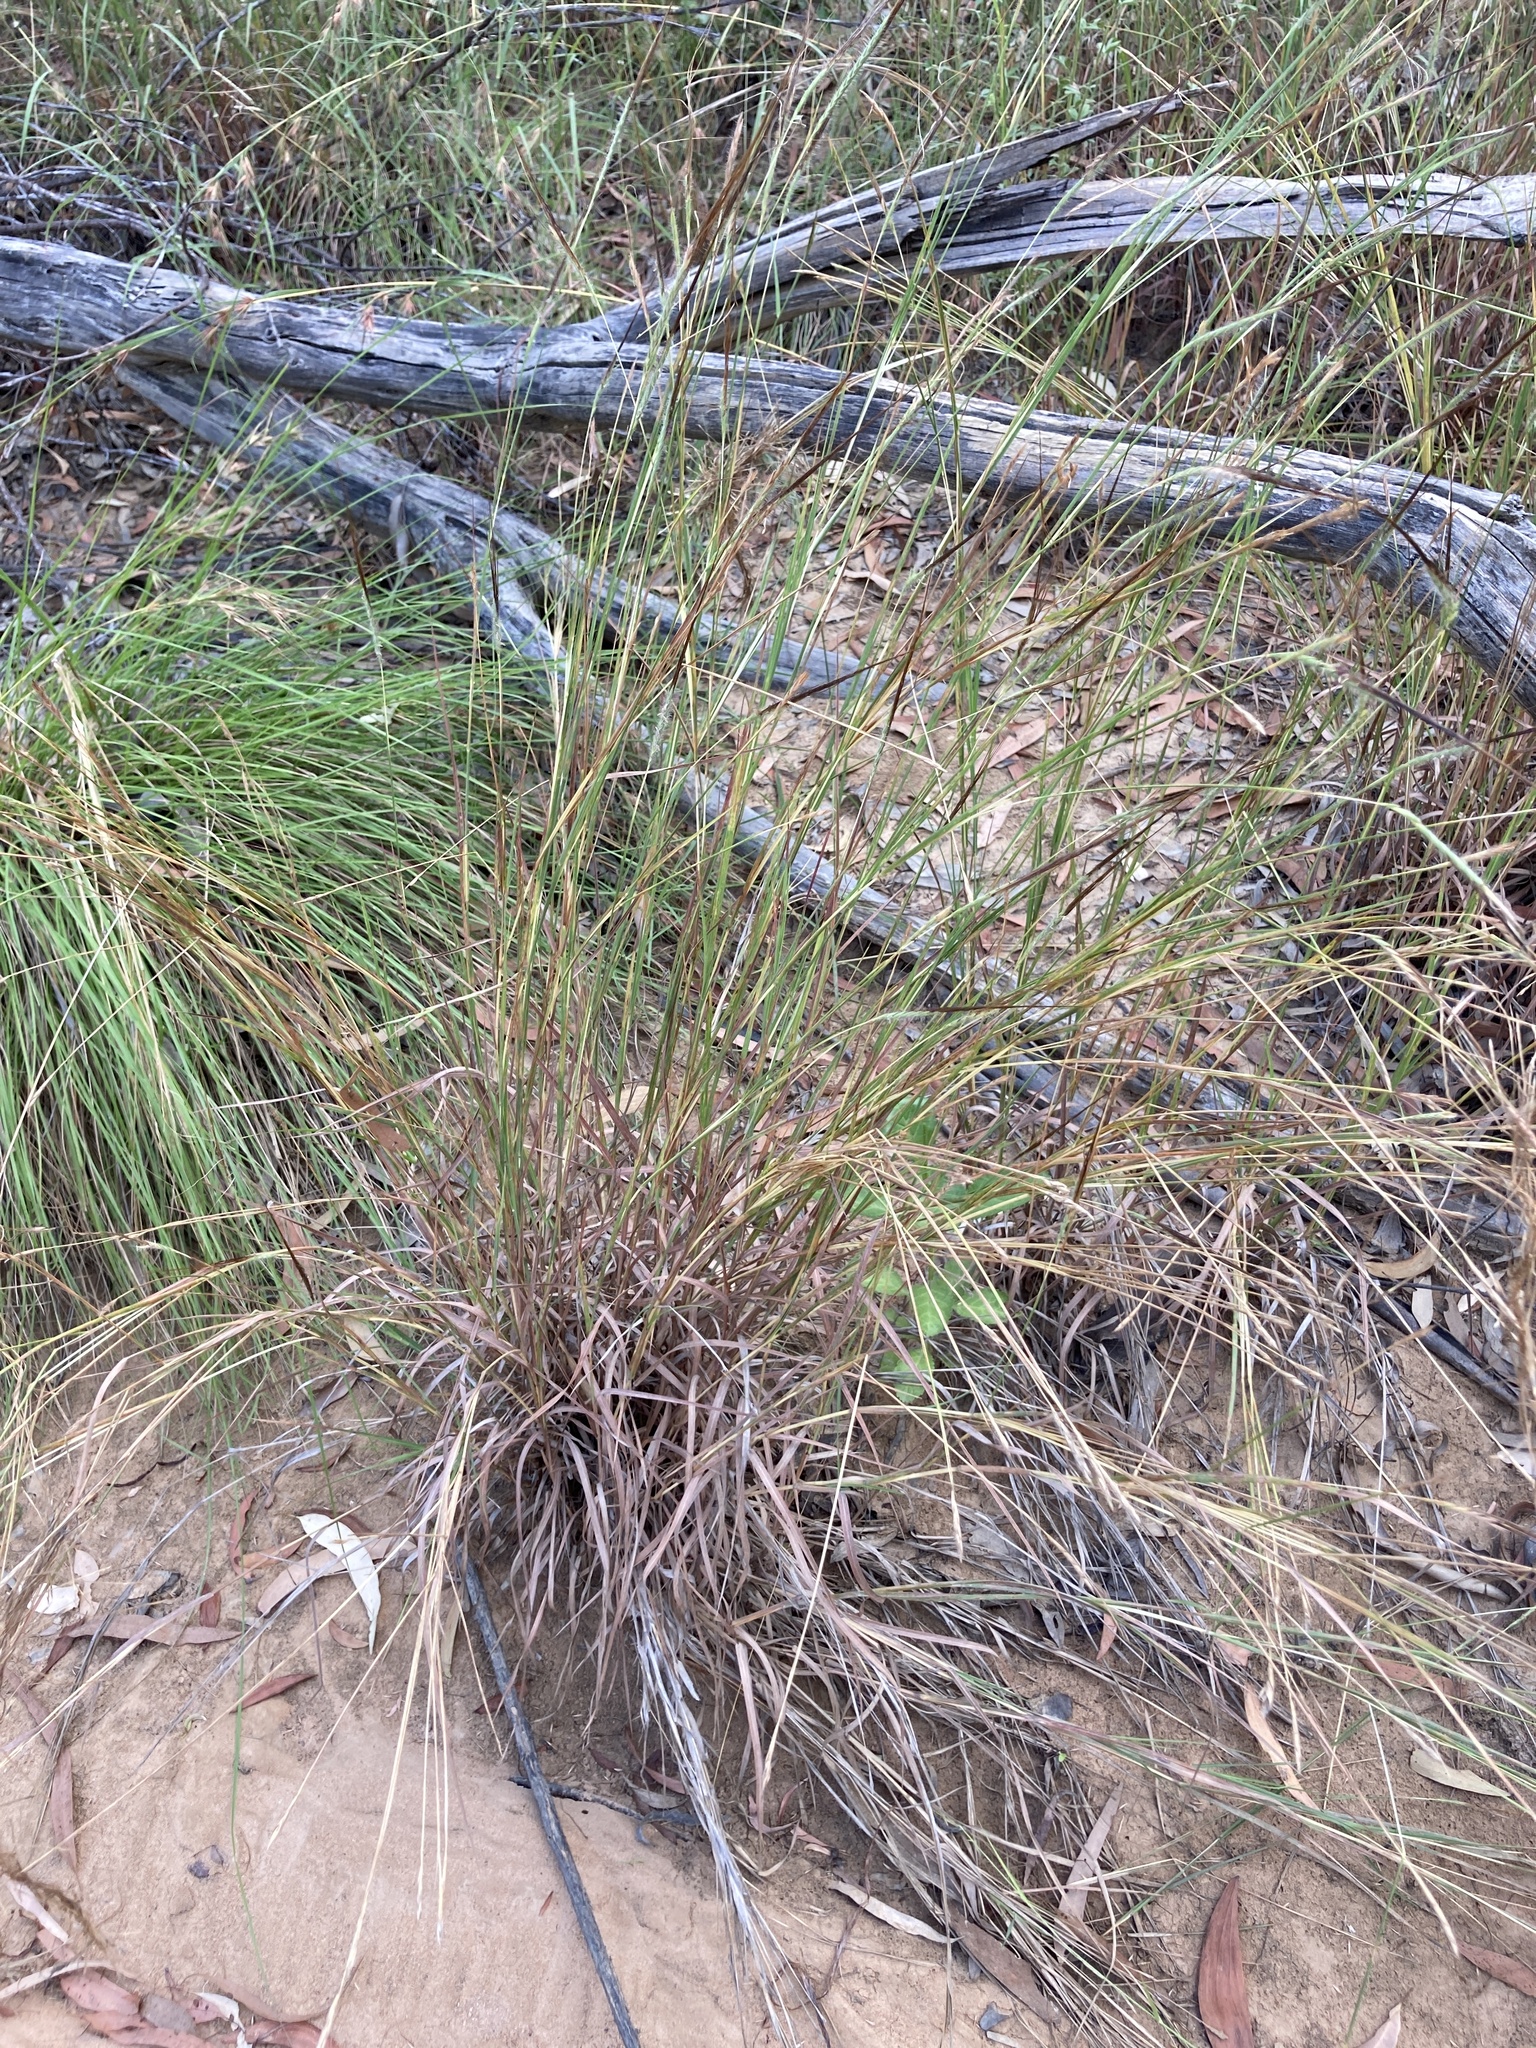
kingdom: Plantae
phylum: Tracheophyta
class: Liliopsida
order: Poales
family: Poaceae
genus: Heteropogon
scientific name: Heteropogon contortus
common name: Tanglehead
